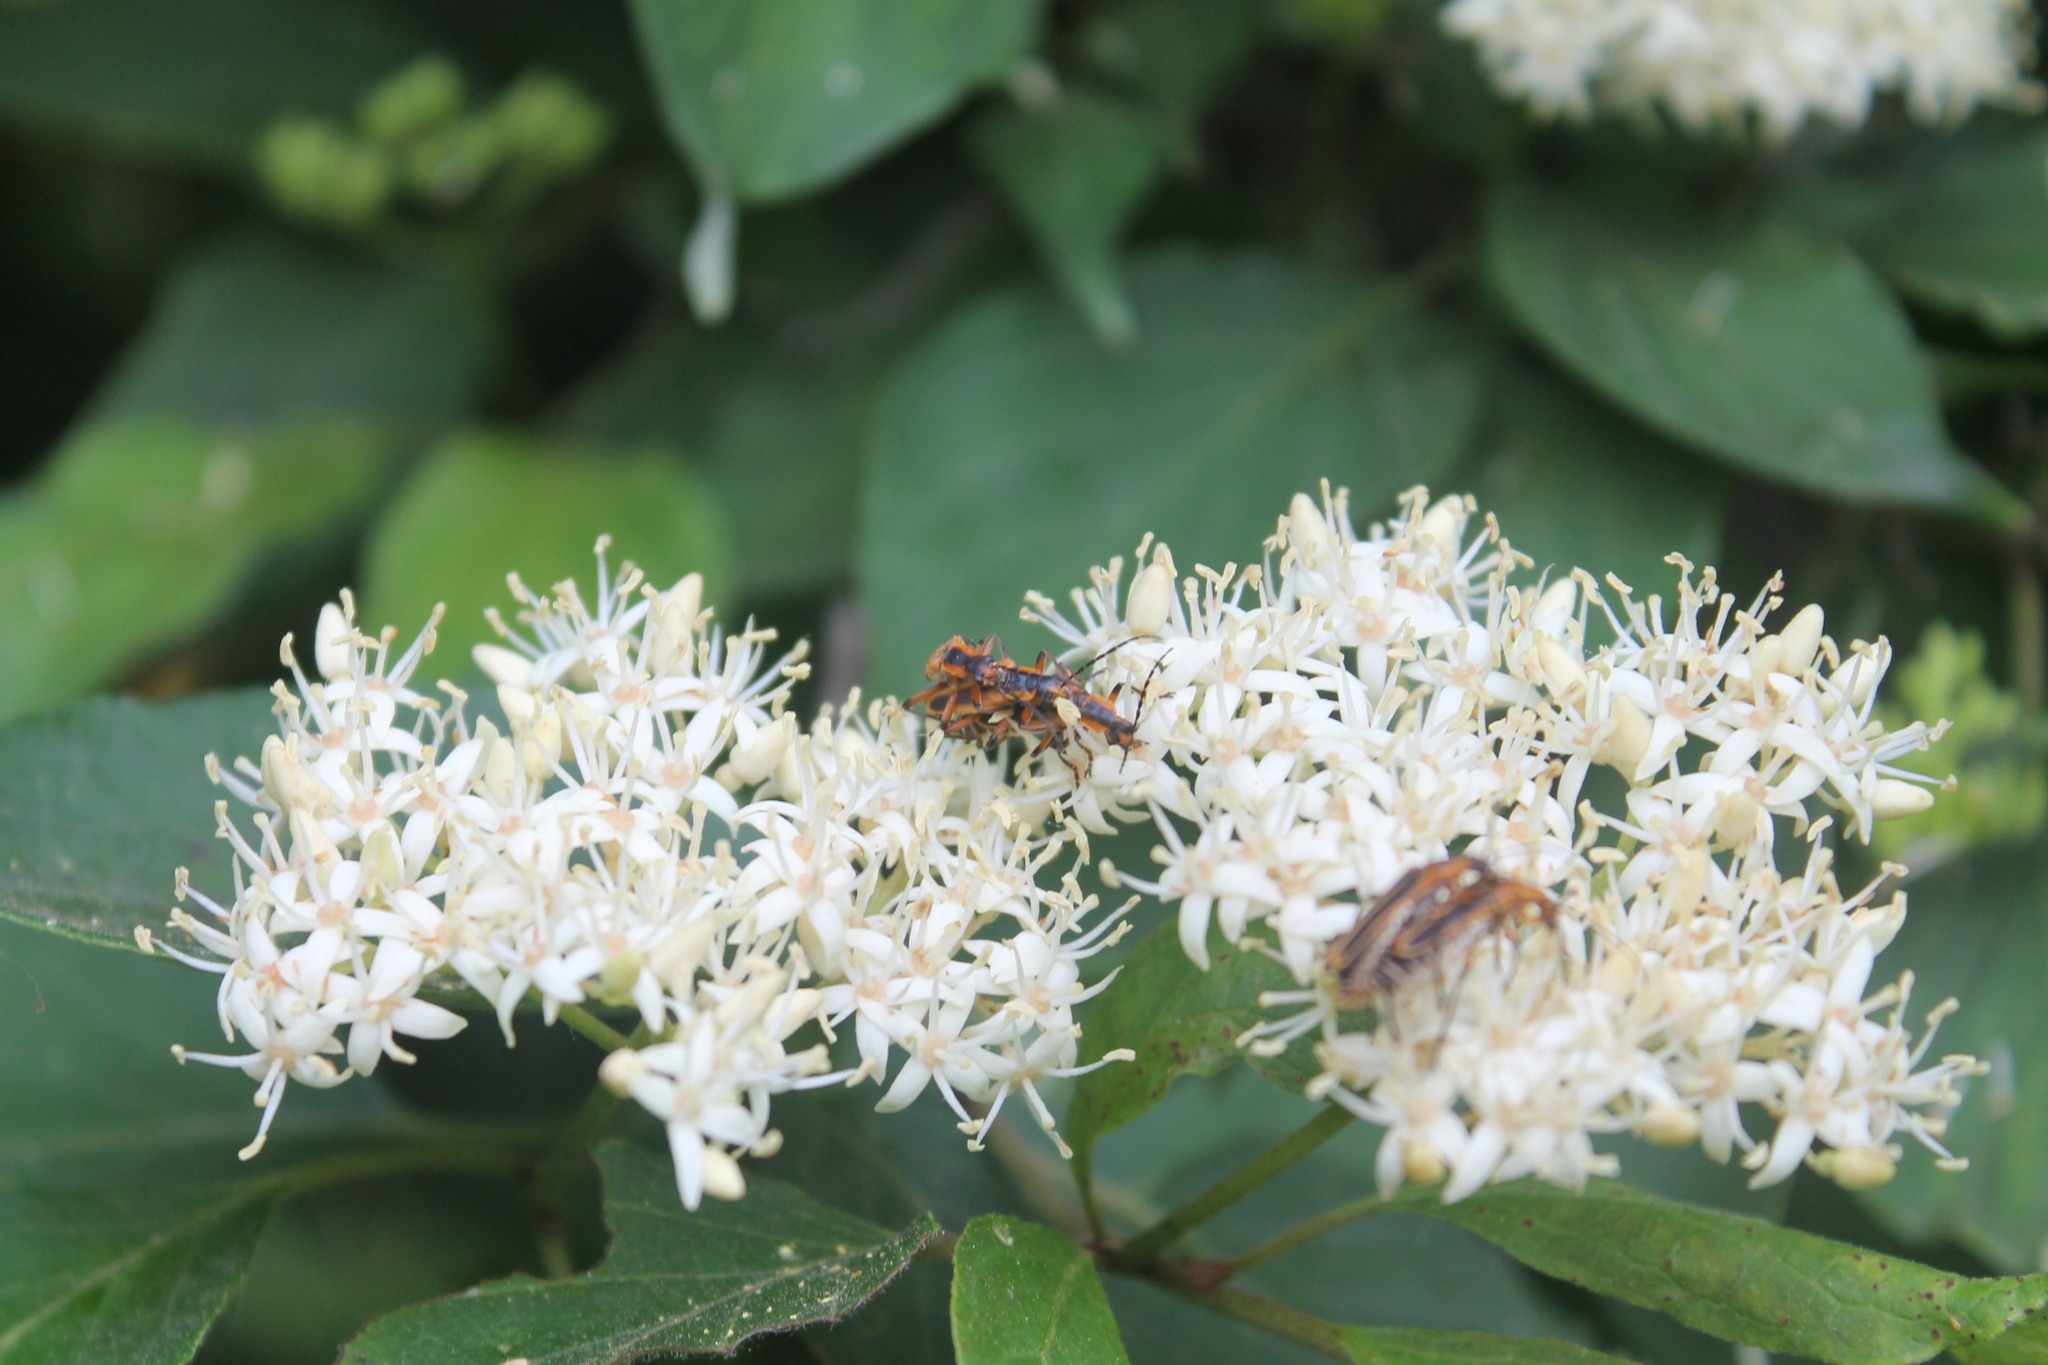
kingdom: Animalia
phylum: Arthropoda
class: Insecta
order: Coleoptera
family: Cantharidae
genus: Chauliognathus
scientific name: Chauliognathus marginatus
